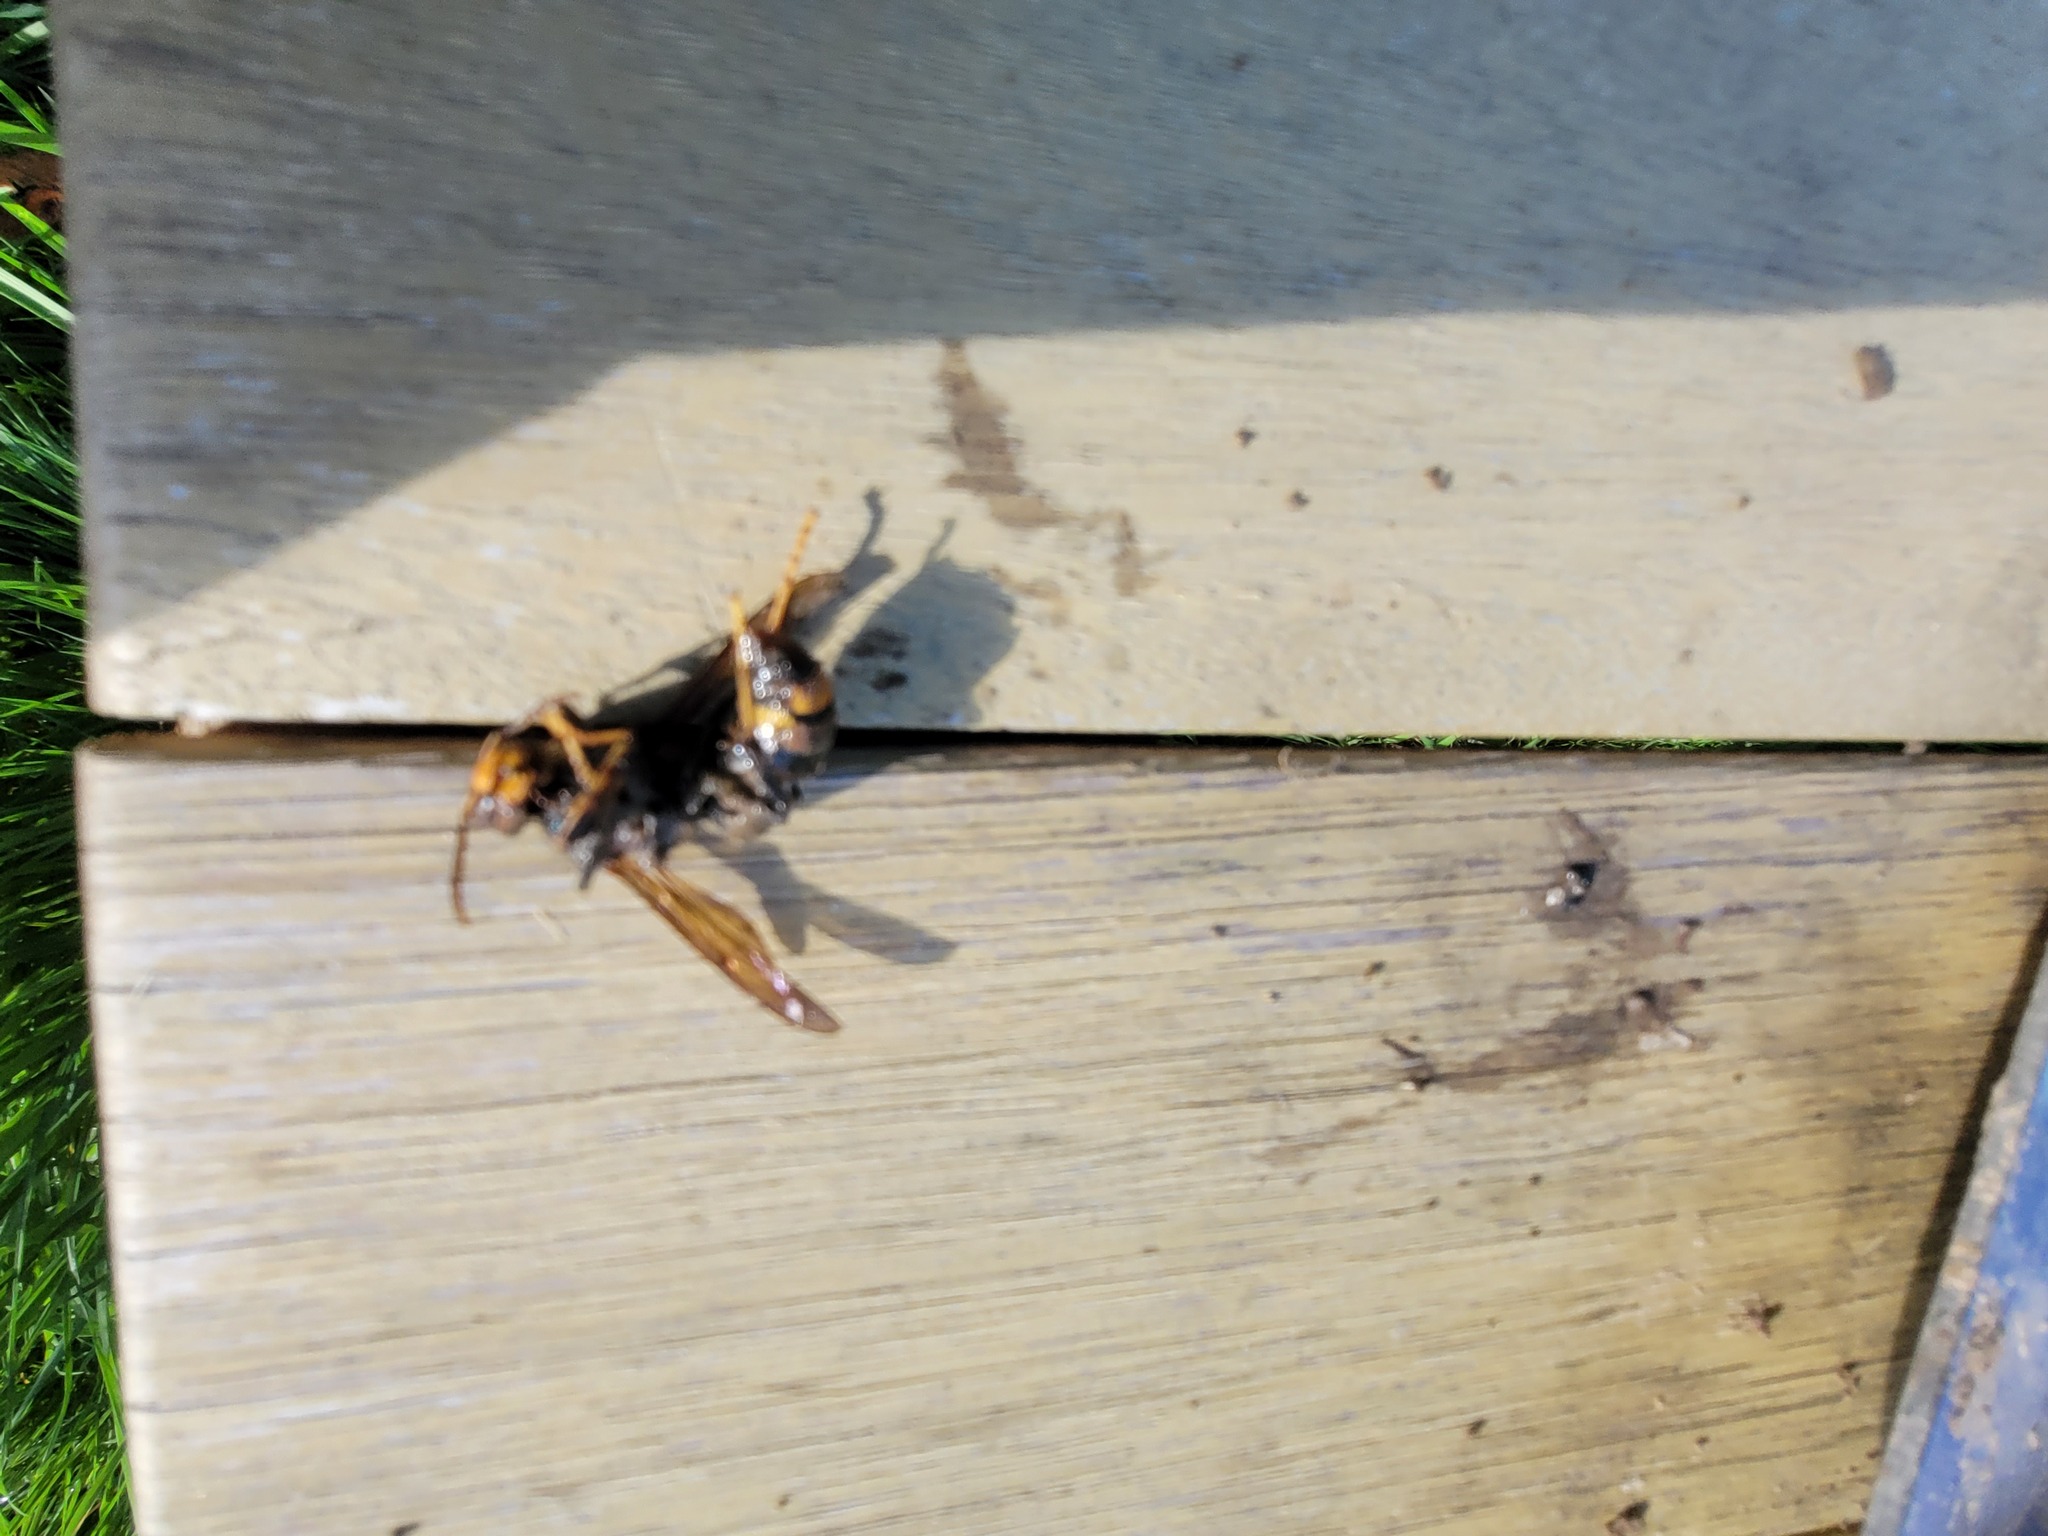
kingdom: Animalia
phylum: Arthropoda
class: Insecta
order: Hymenoptera
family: Vespidae
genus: Vespa
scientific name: Vespa velutina
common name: Asian hornet
